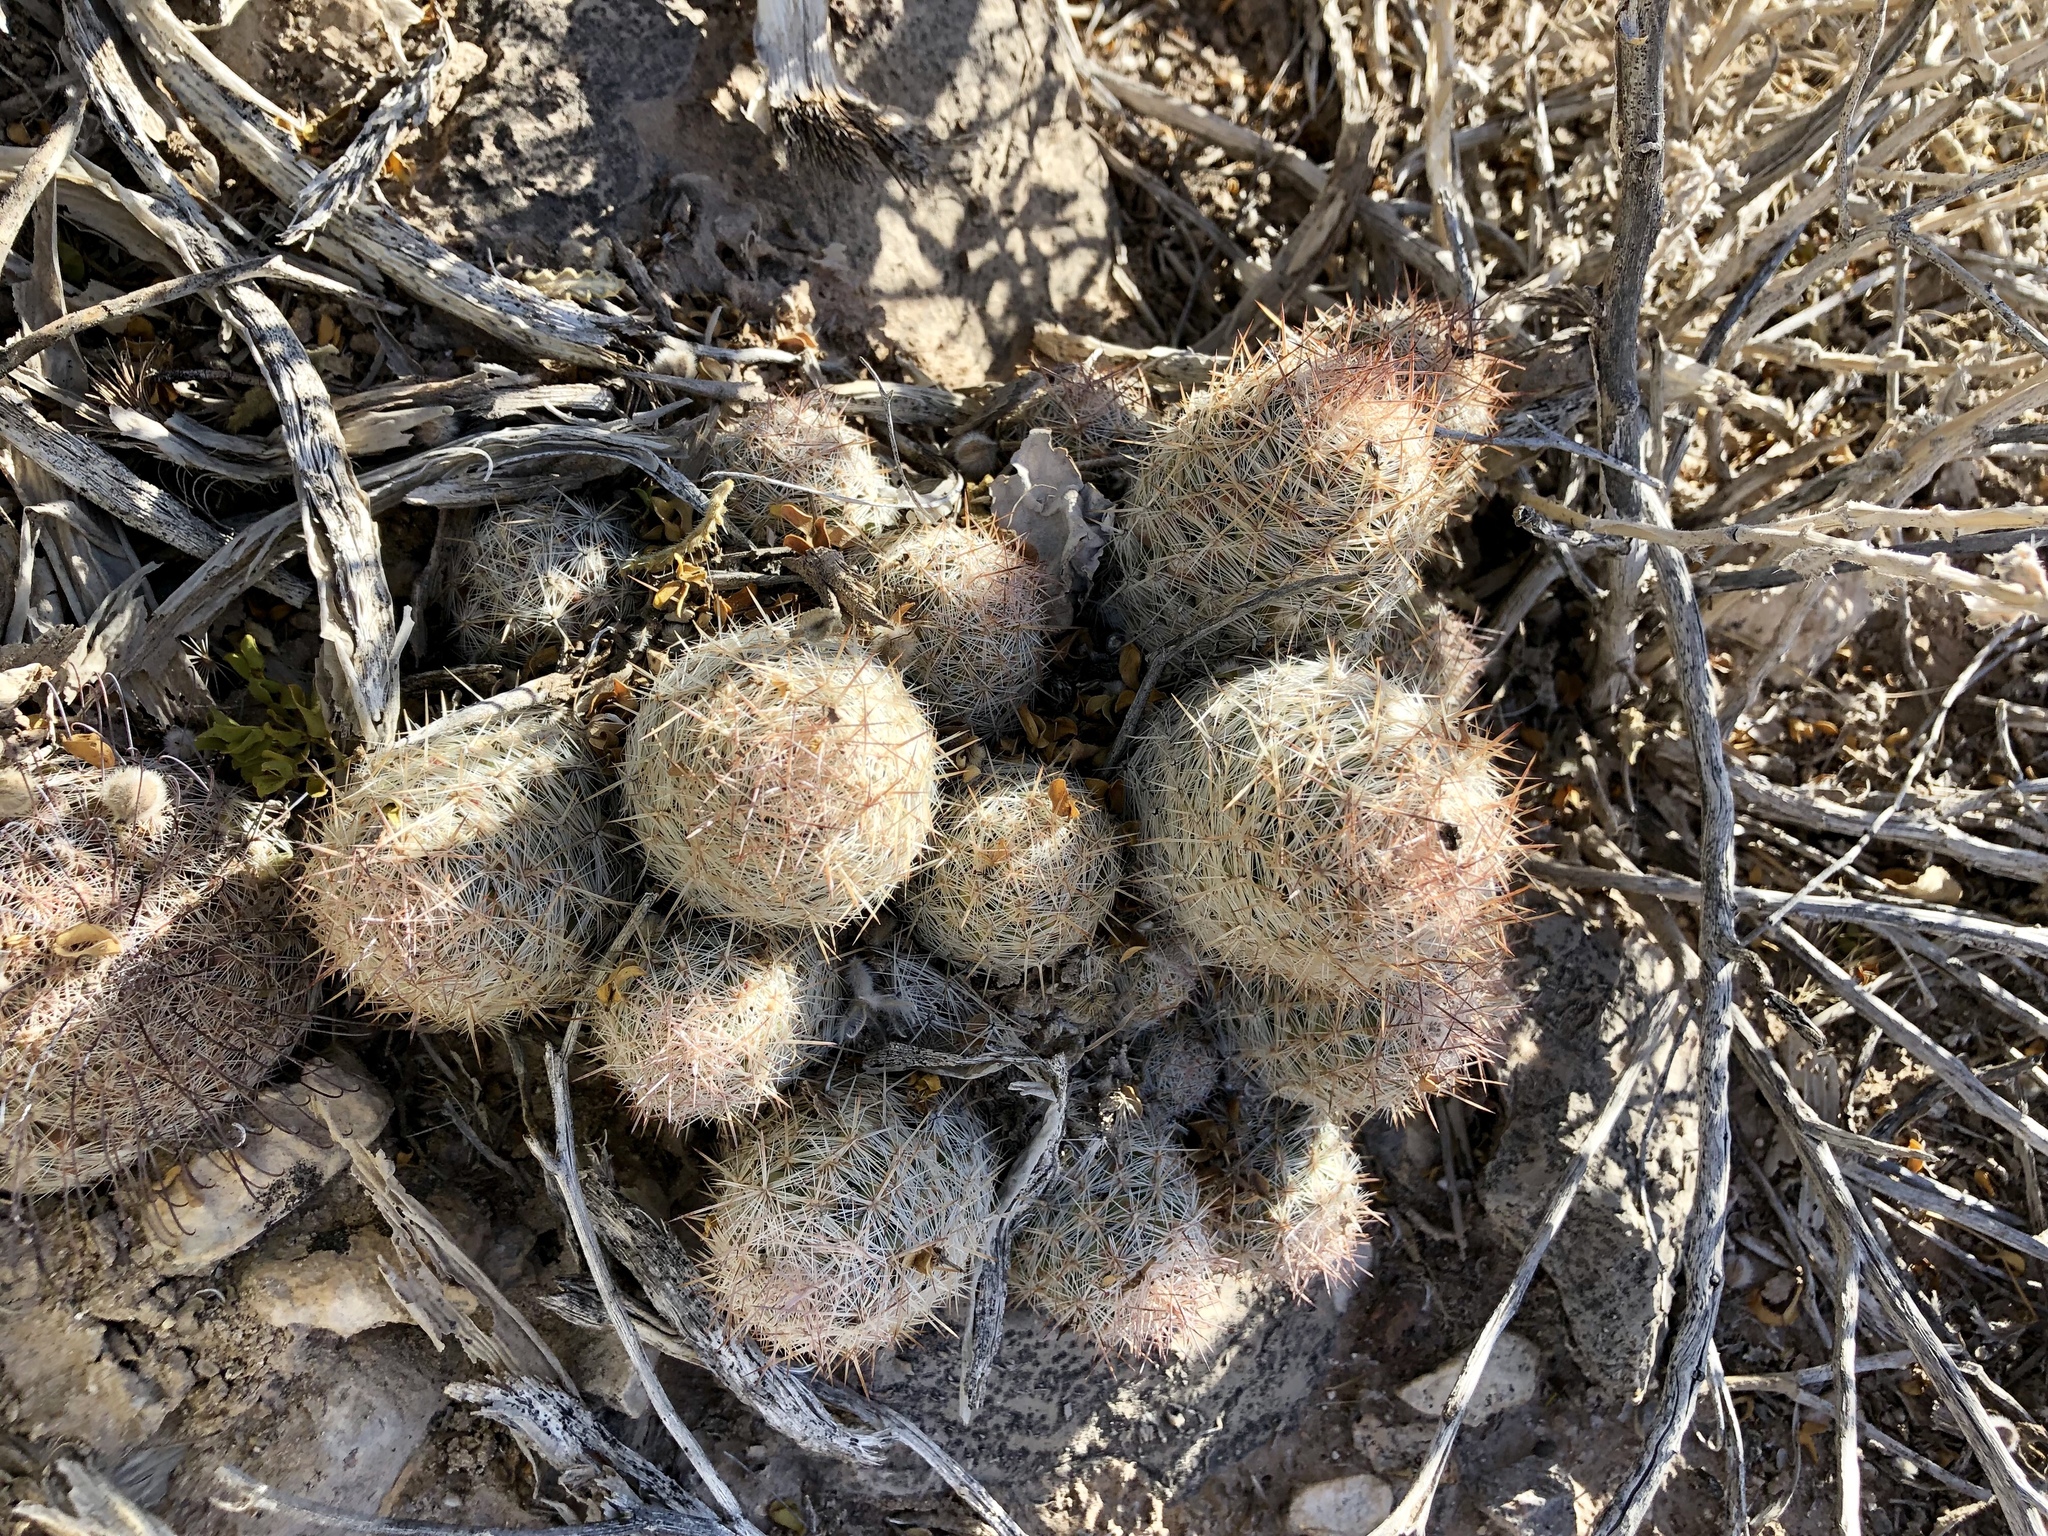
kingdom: Plantae
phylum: Tracheophyta
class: Magnoliopsida
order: Caryophyllales
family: Cactaceae
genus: Pelecyphora
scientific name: Pelecyphora tuberculosa
